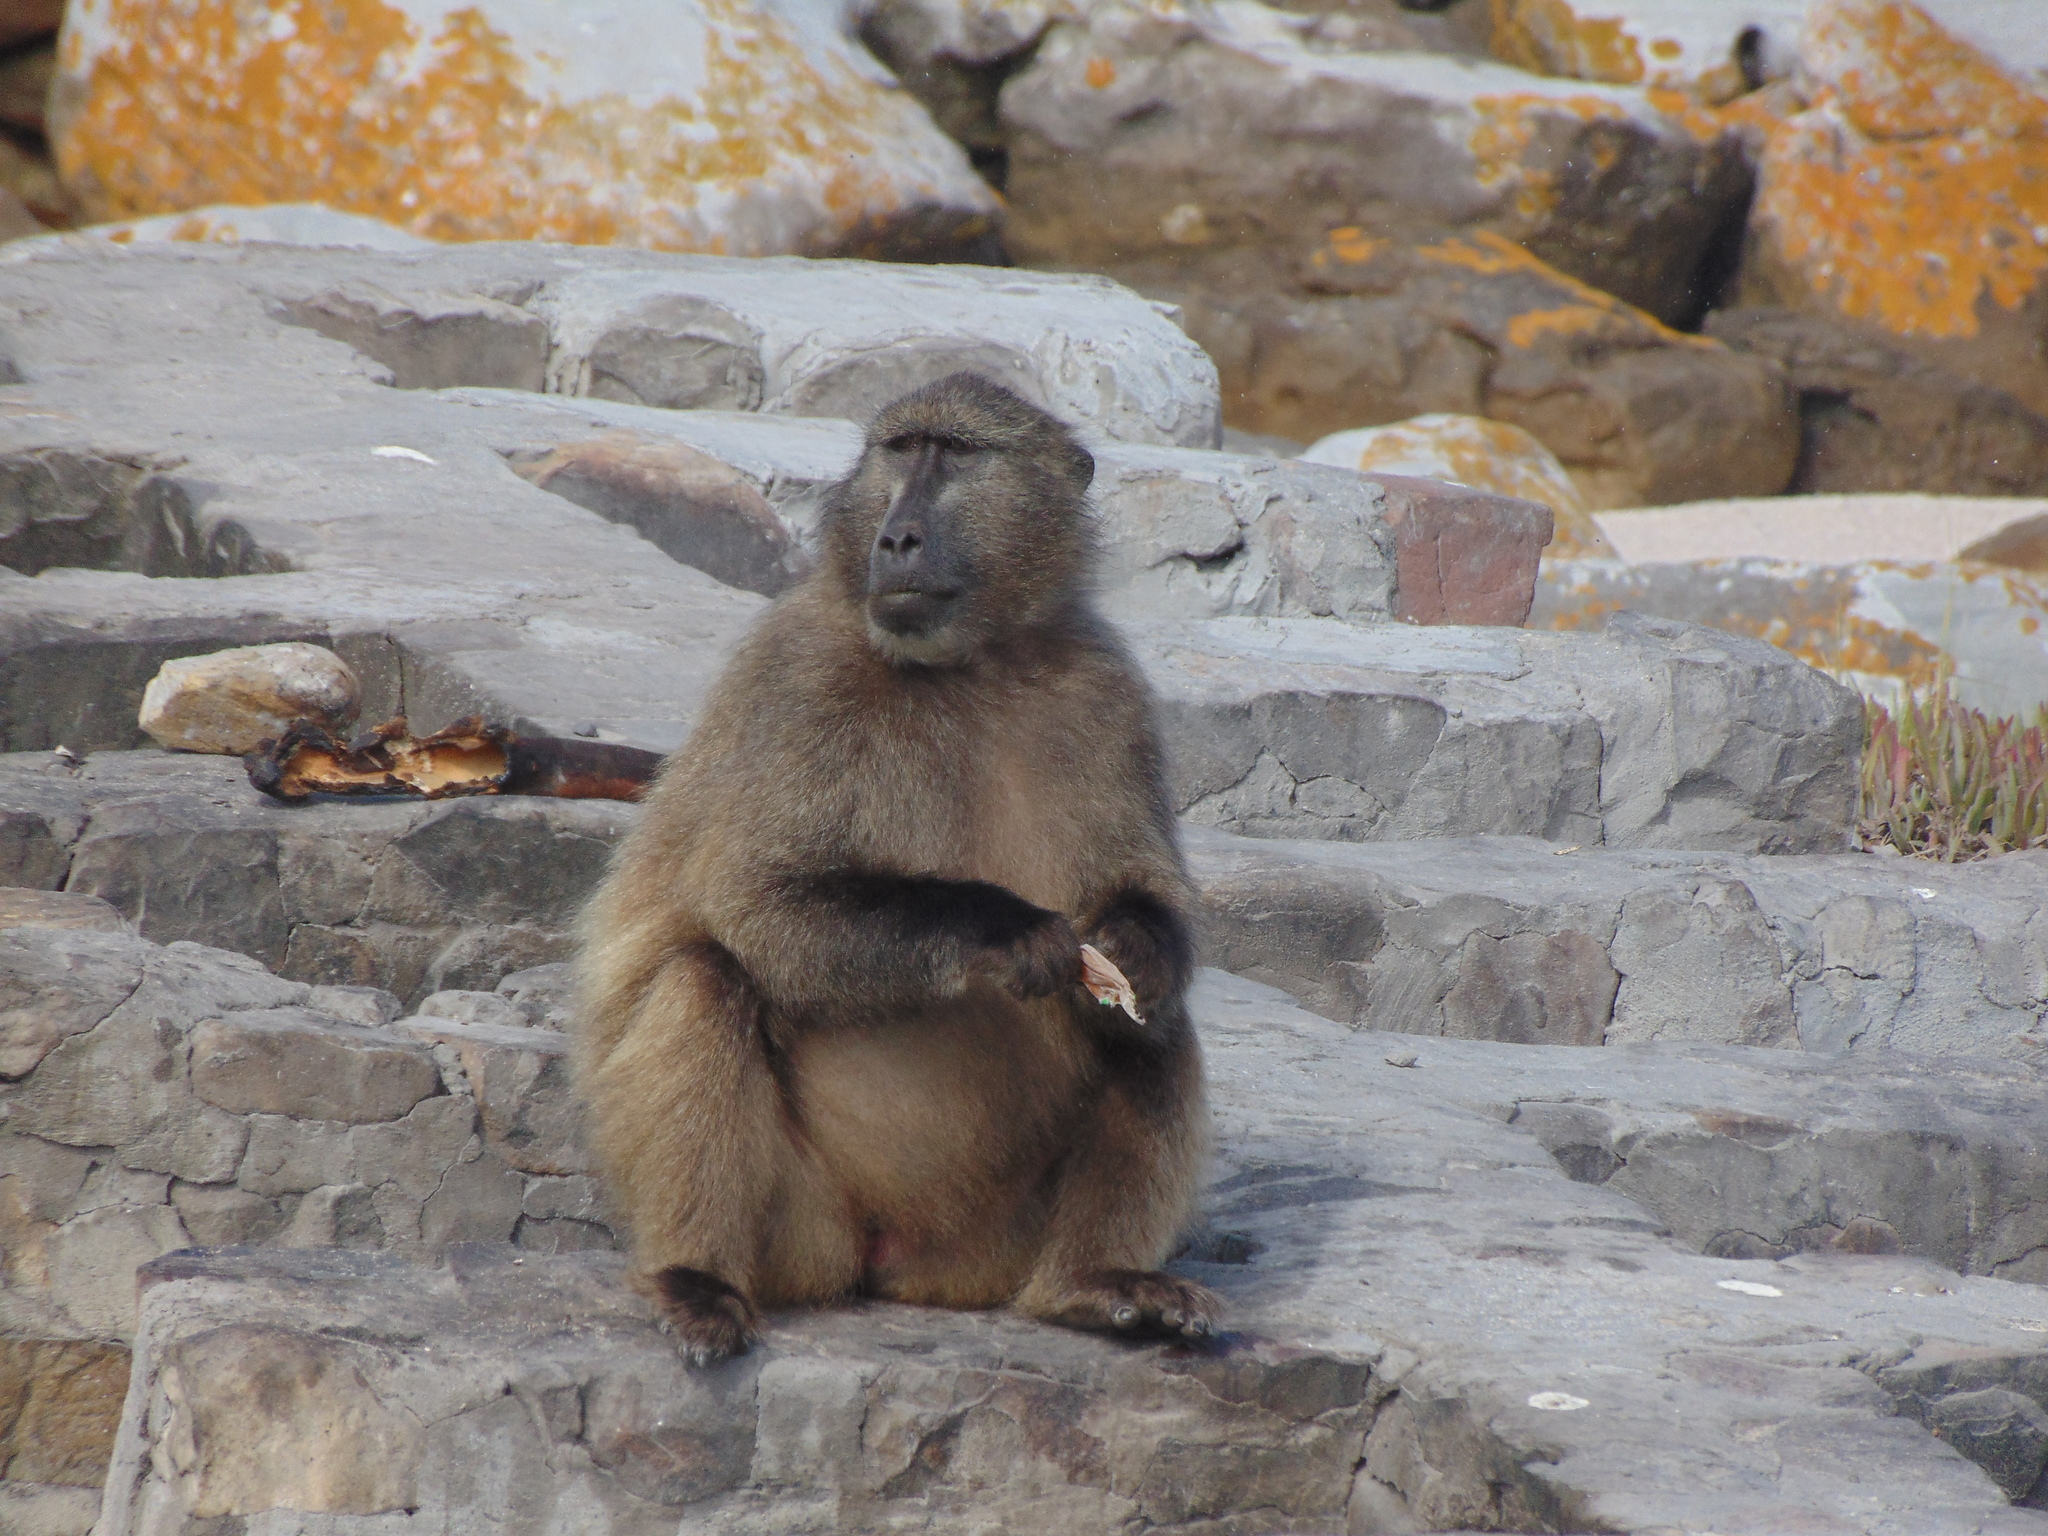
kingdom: Animalia
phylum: Chordata
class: Mammalia
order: Primates
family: Cercopithecidae
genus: Papio
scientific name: Papio ursinus
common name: Chacma baboon
